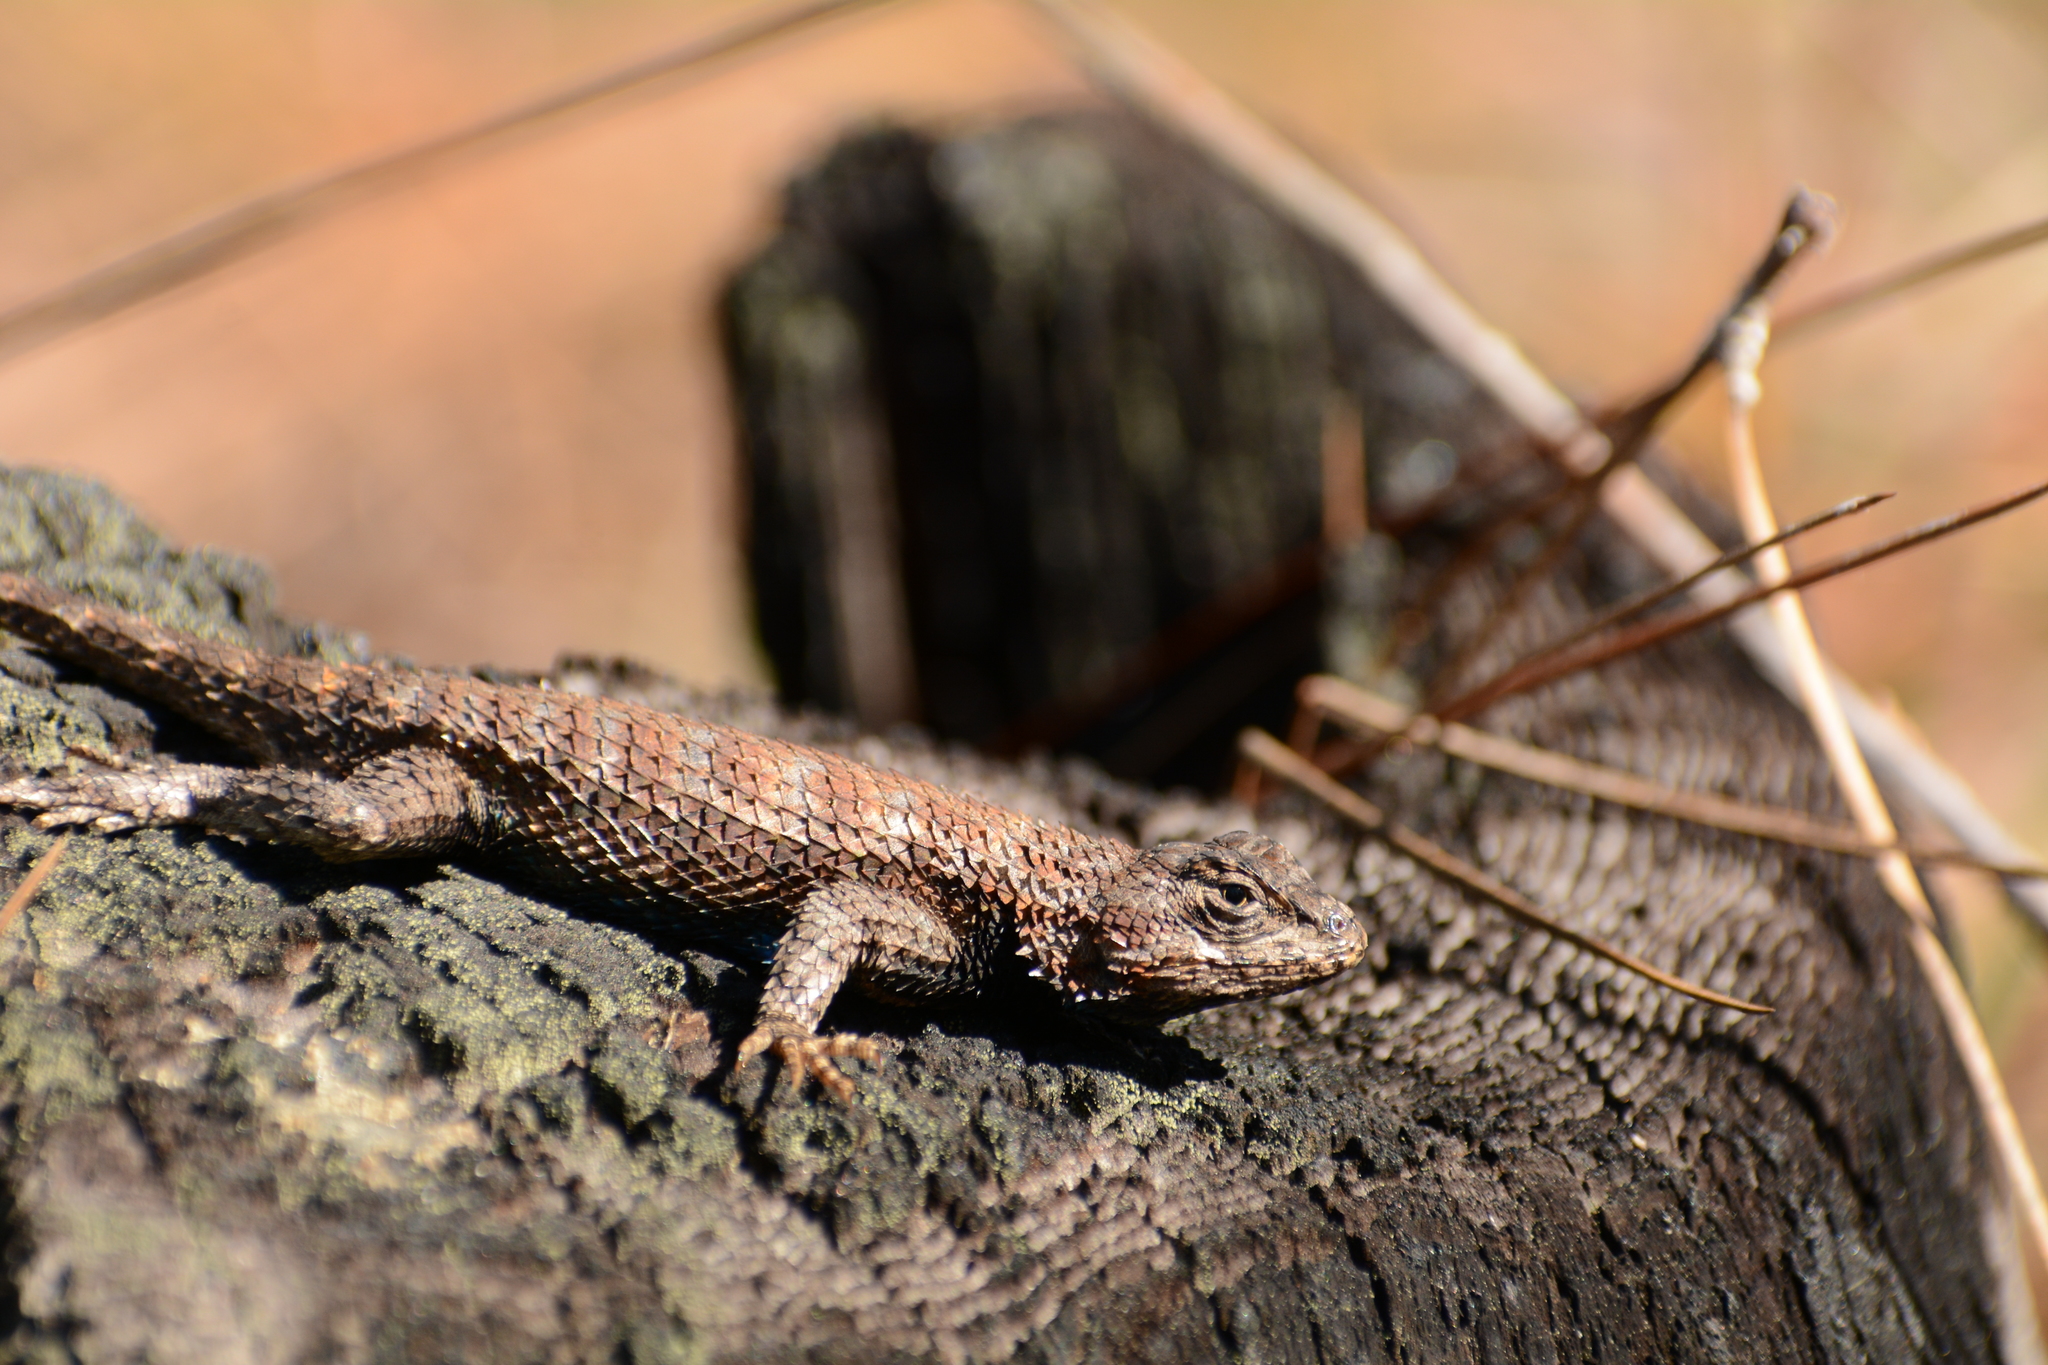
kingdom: Animalia
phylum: Chordata
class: Squamata
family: Phrynosomatidae
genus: Sceloporus
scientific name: Sceloporus undulatus
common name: Eastern fence lizard
